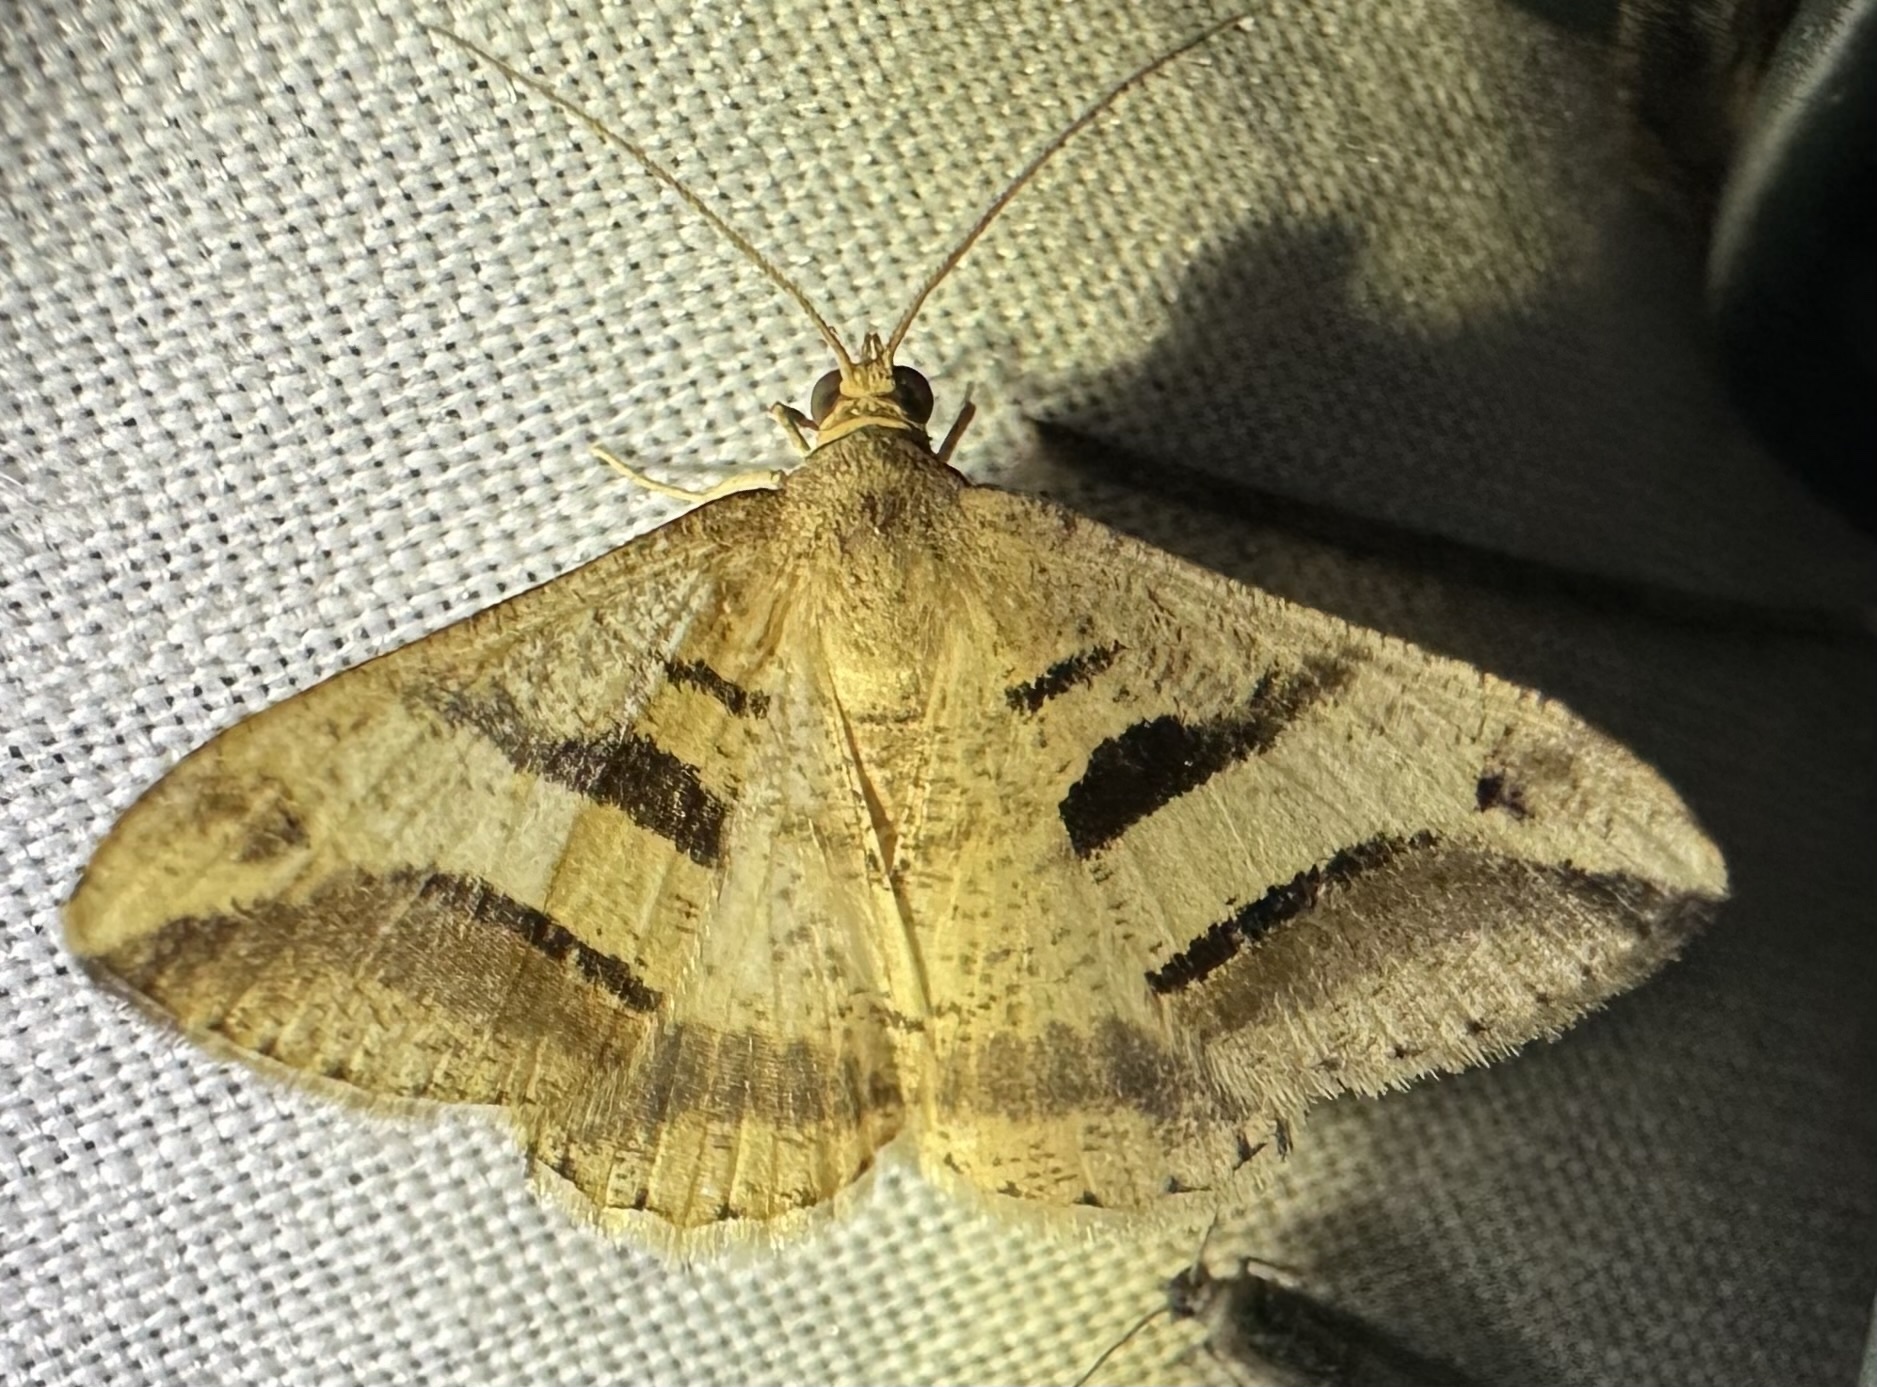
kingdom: Animalia
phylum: Arthropoda
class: Insecta
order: Lepidoptera
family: Geometridae
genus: Chiasmia
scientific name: Chiasmia subcurvaria
